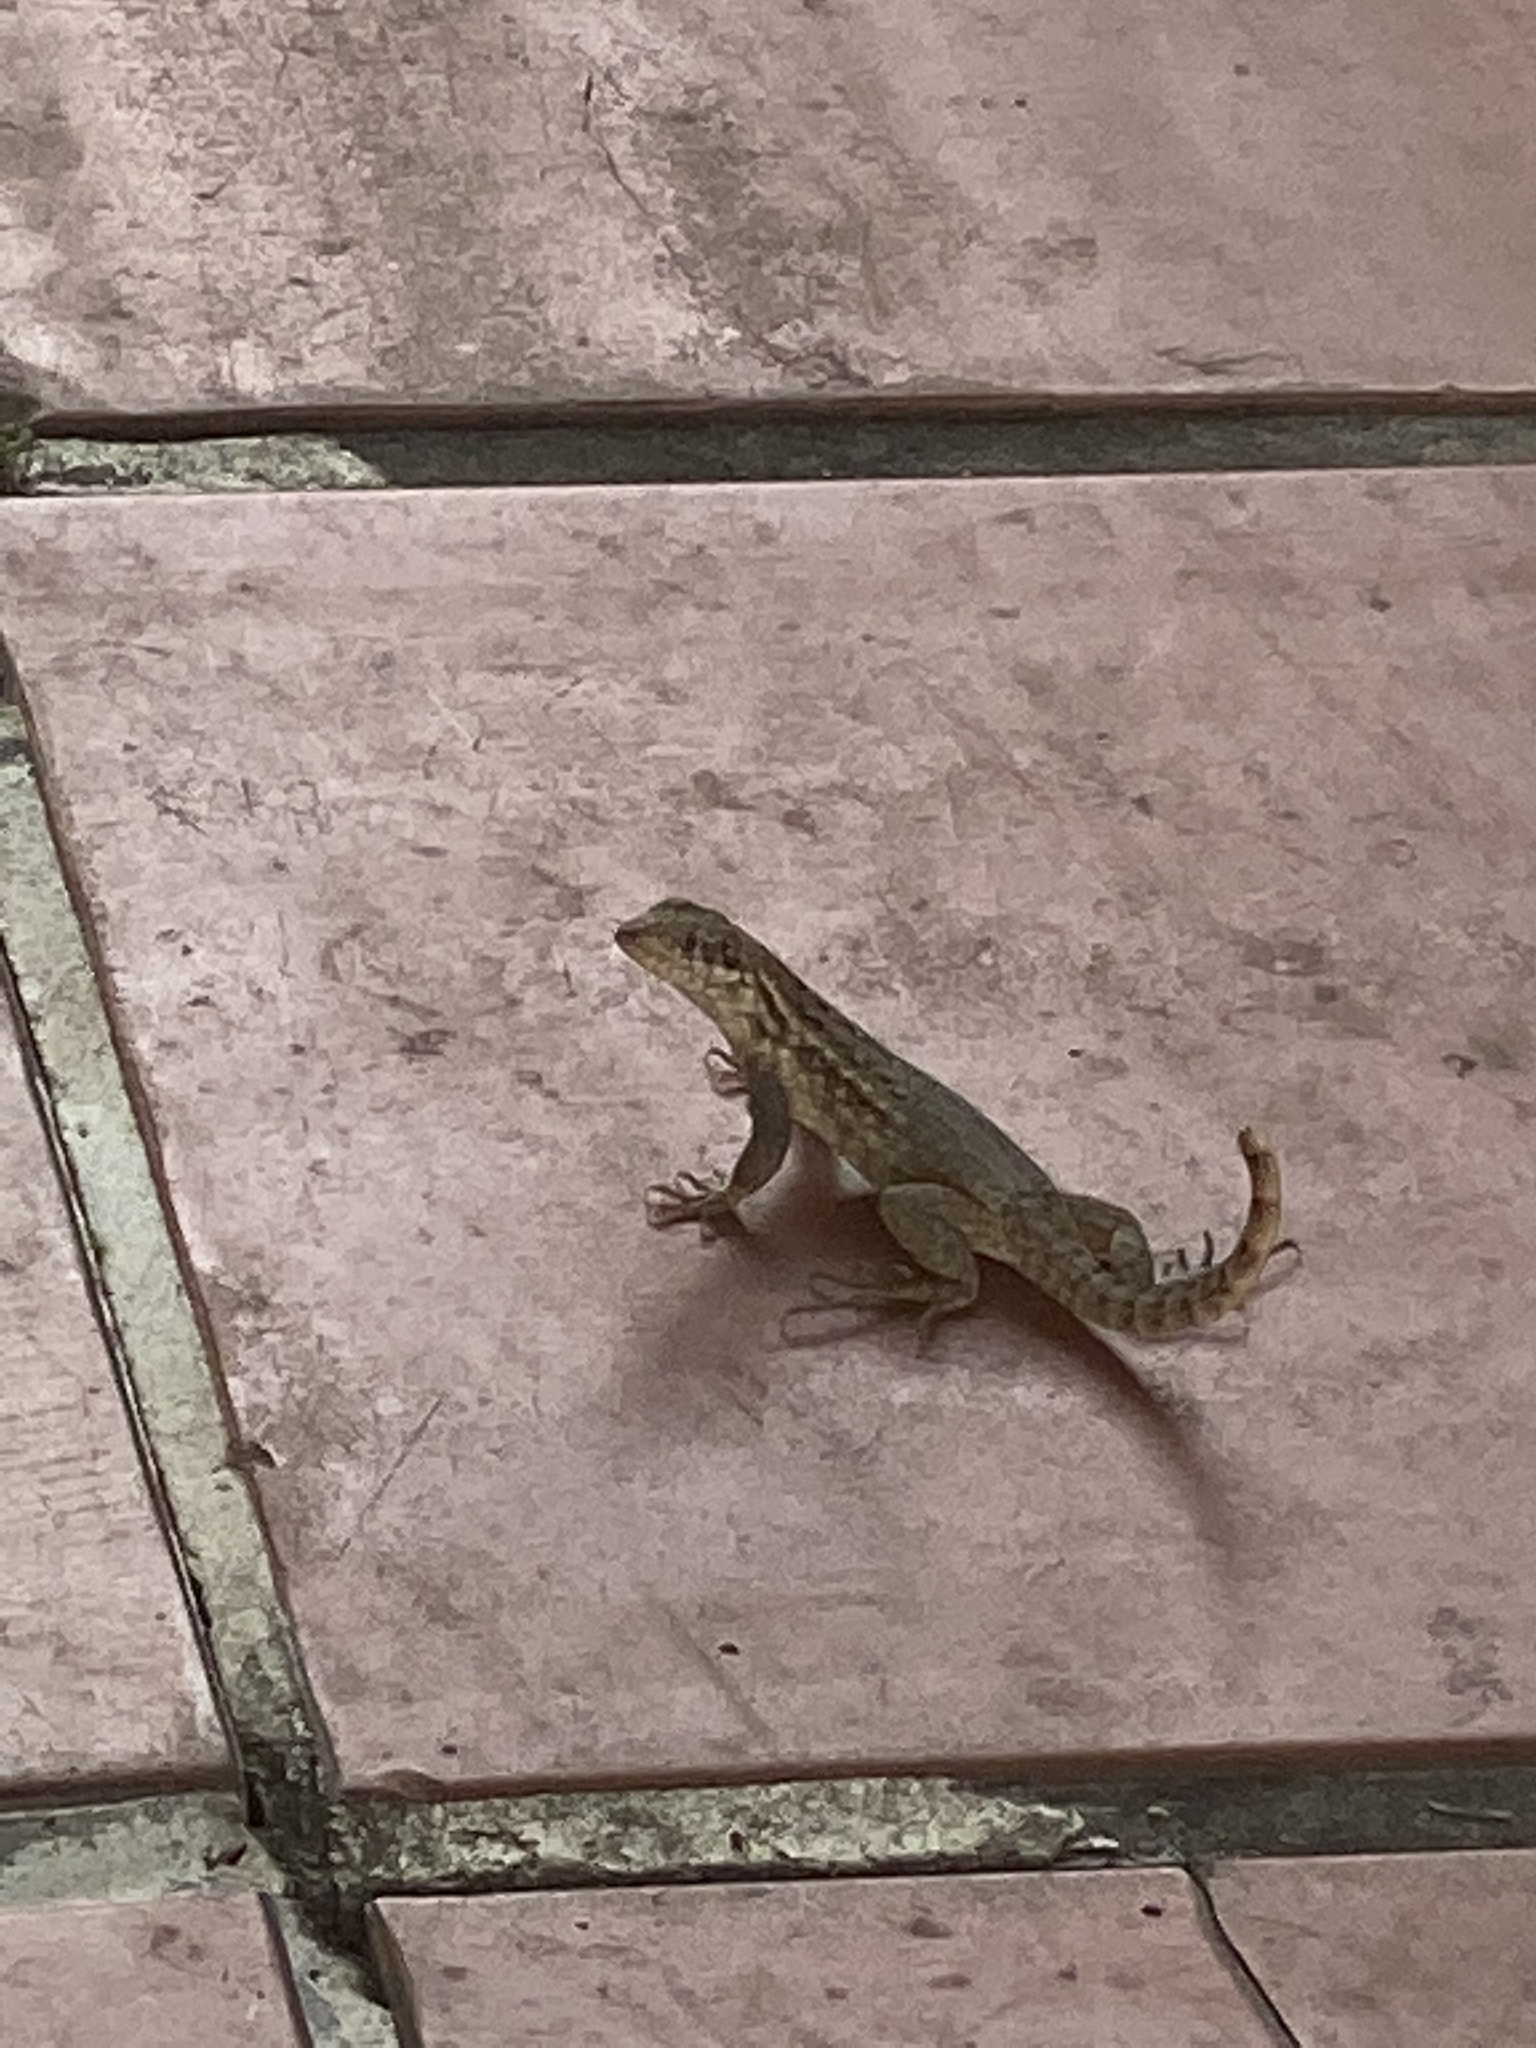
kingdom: Animalia
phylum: Chordata
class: Squamata
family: Leiocephalidae
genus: Leiocephalus
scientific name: Leiocephalus carinatus
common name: Northern curly-tailed lizard
